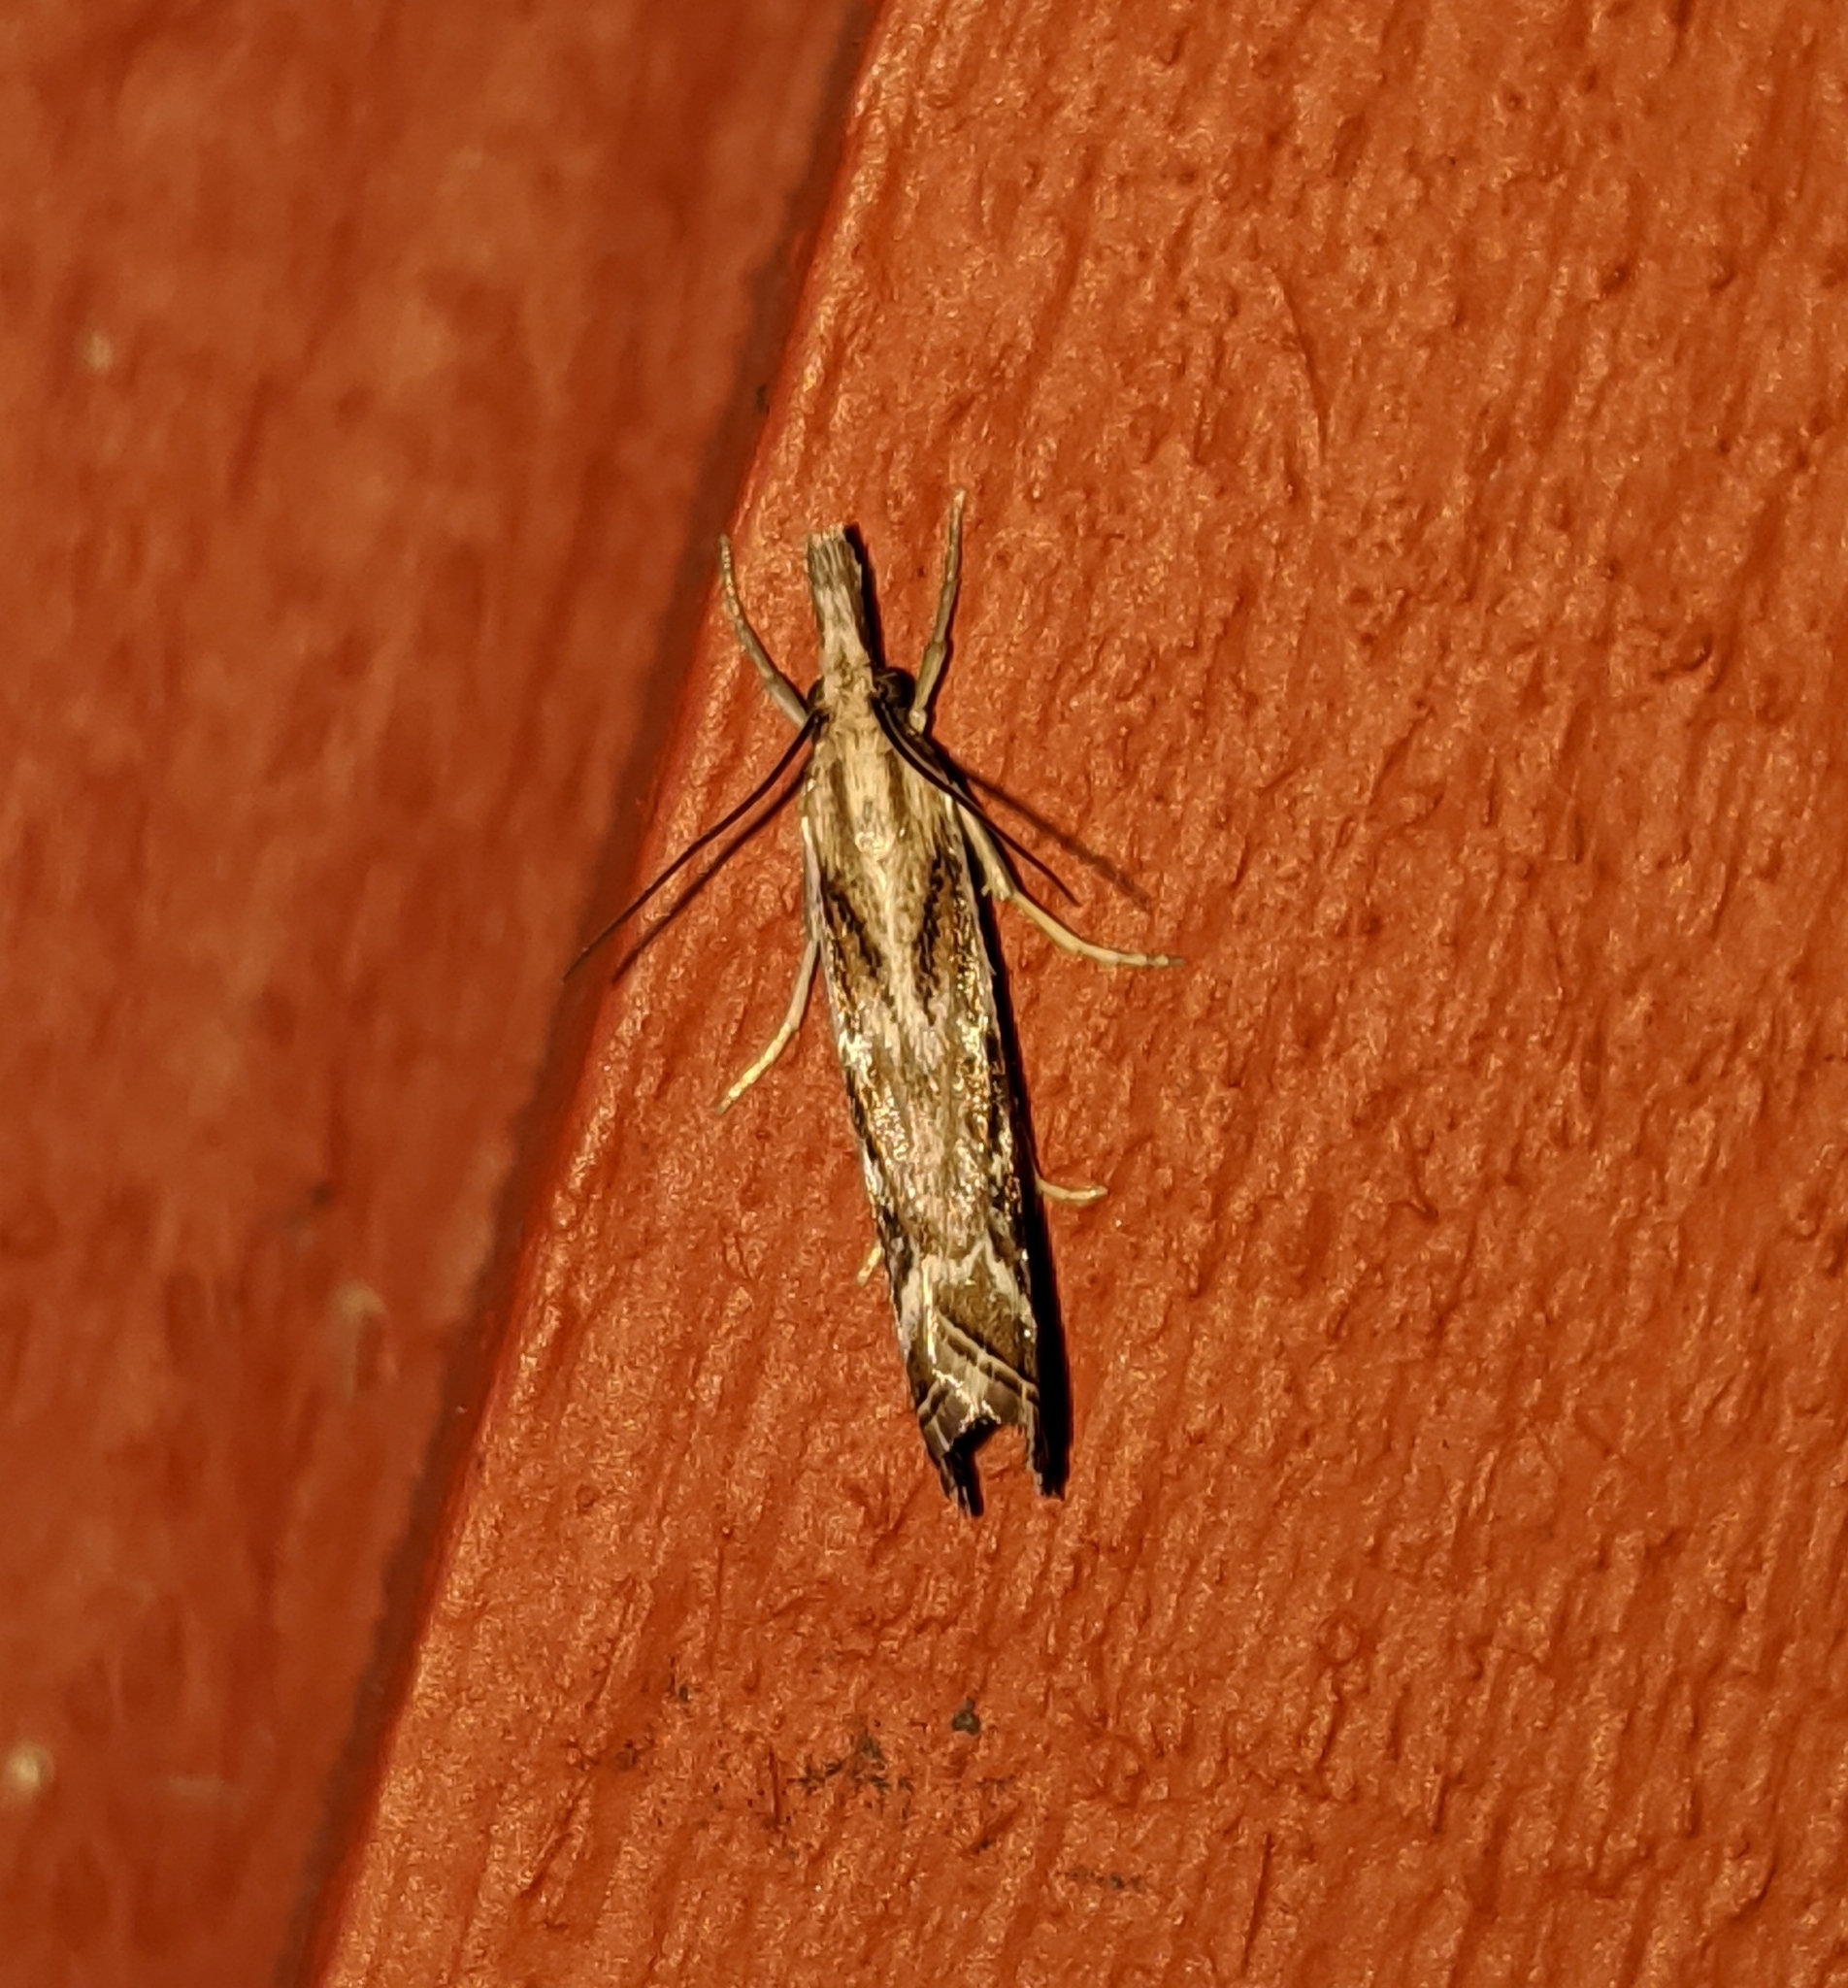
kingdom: Animalia
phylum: Arthropoda
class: Insecta
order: Lepidoptera
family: Crambidae
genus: Catoptria
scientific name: Catoptria oregonicus
